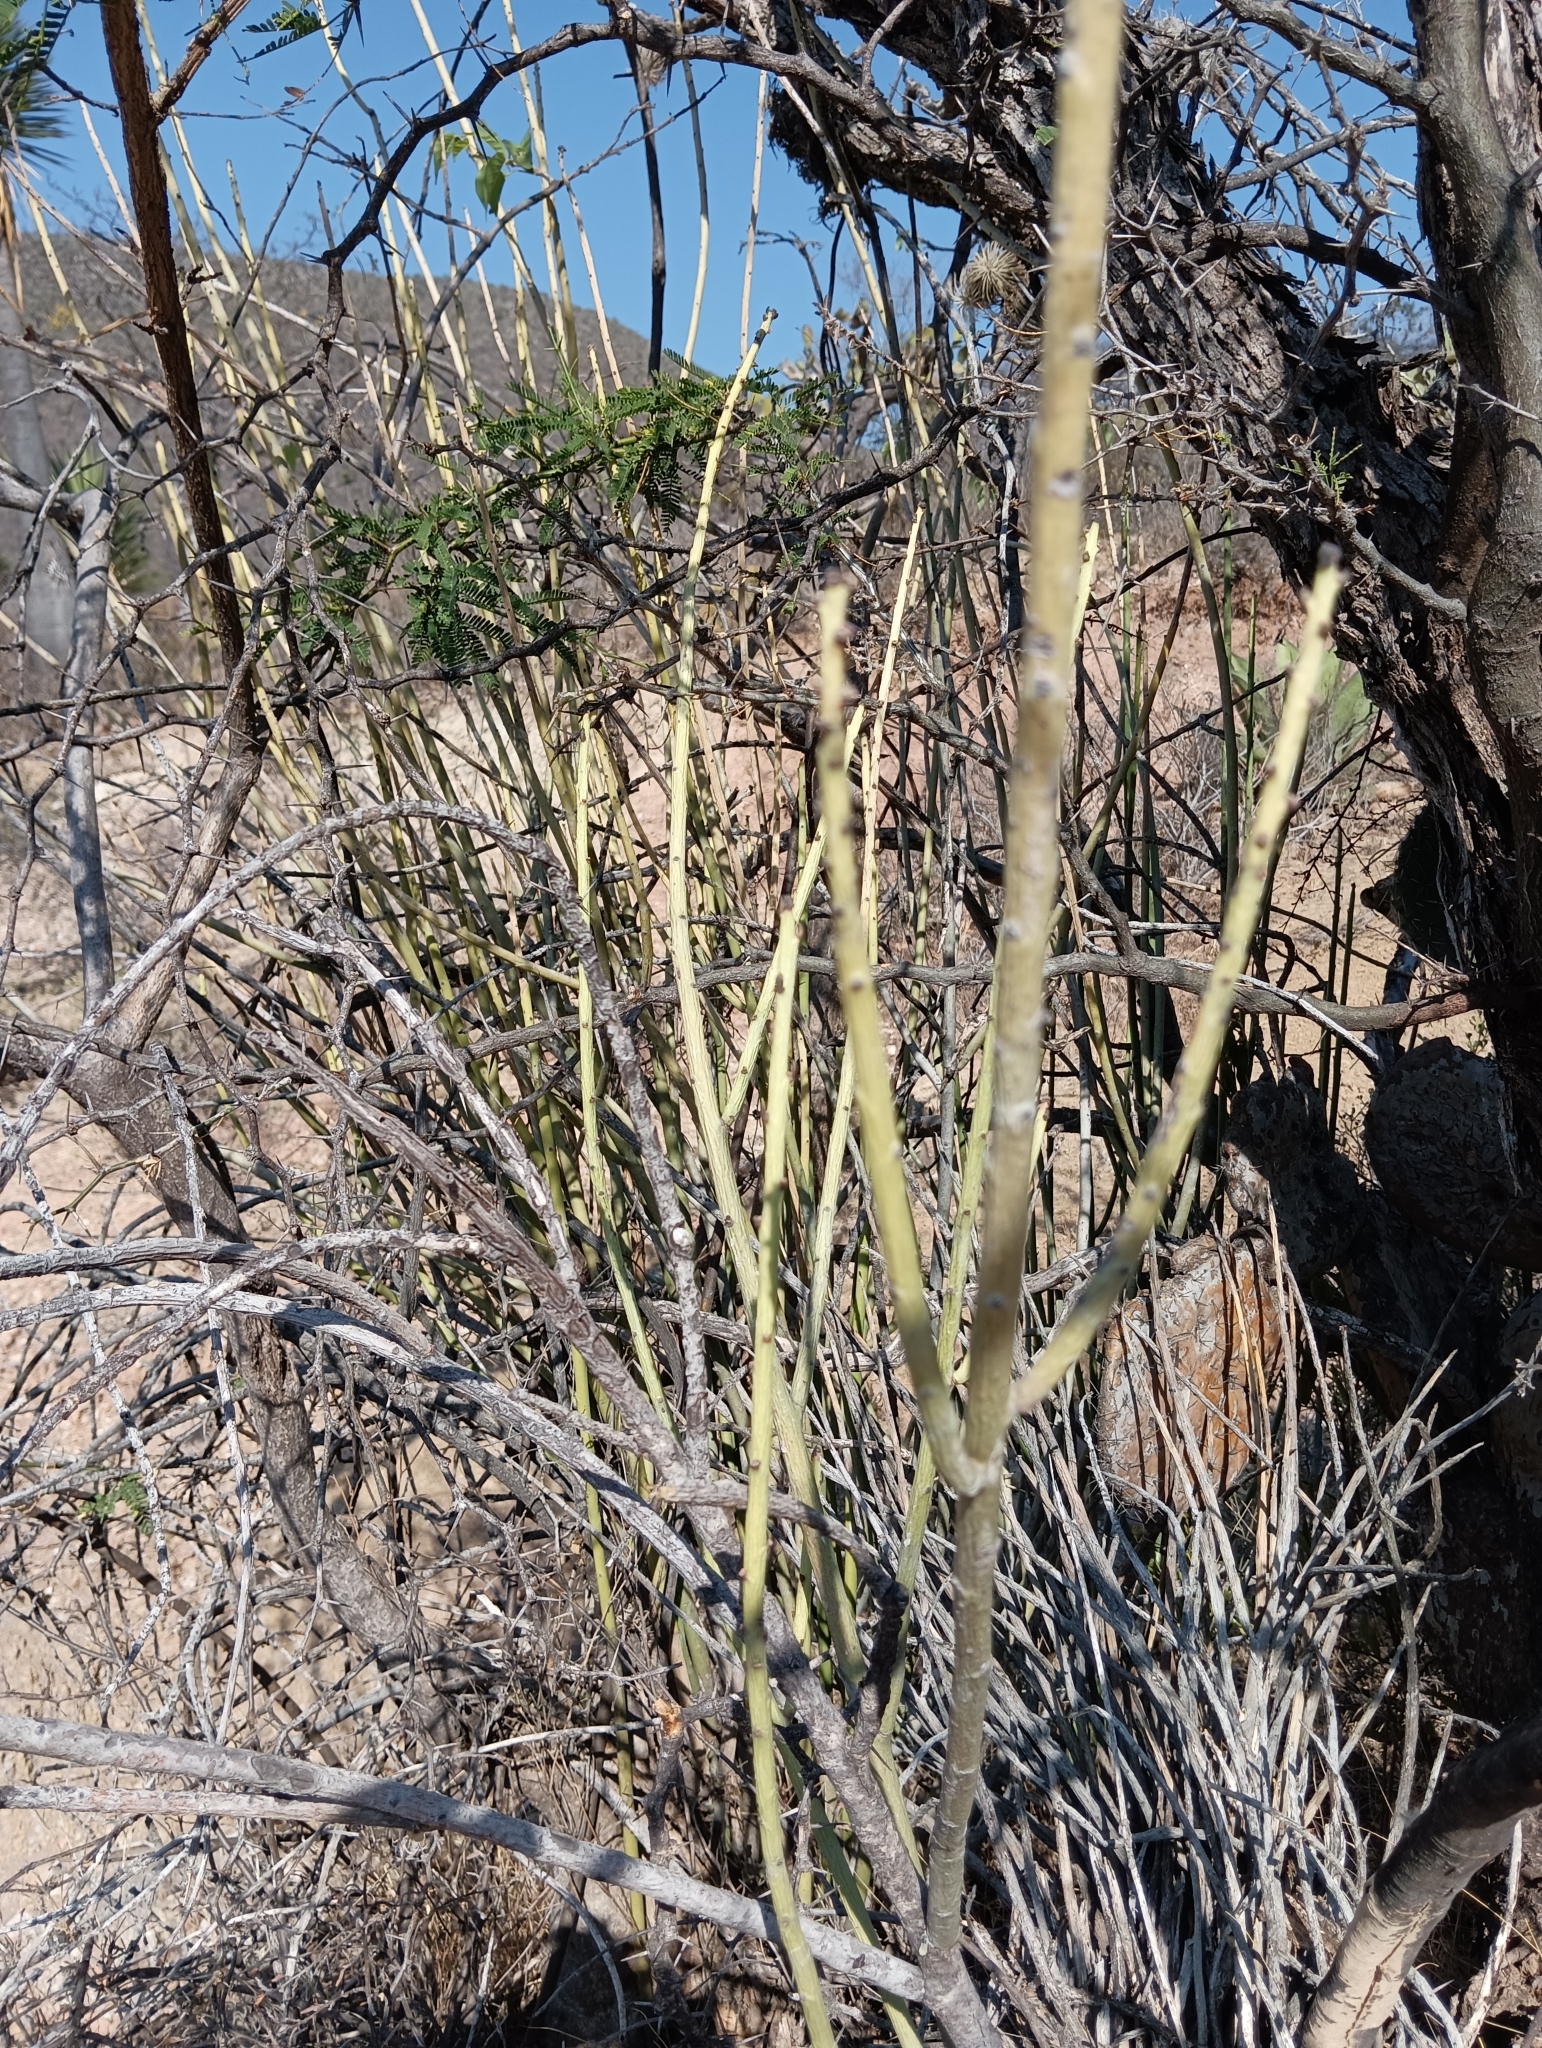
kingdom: Plantae
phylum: Tracheophyta
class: Magnoliopsida
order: Malpighiales
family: Euphorbiaceae
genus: Euphorbia
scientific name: Euphorbia rossiana
